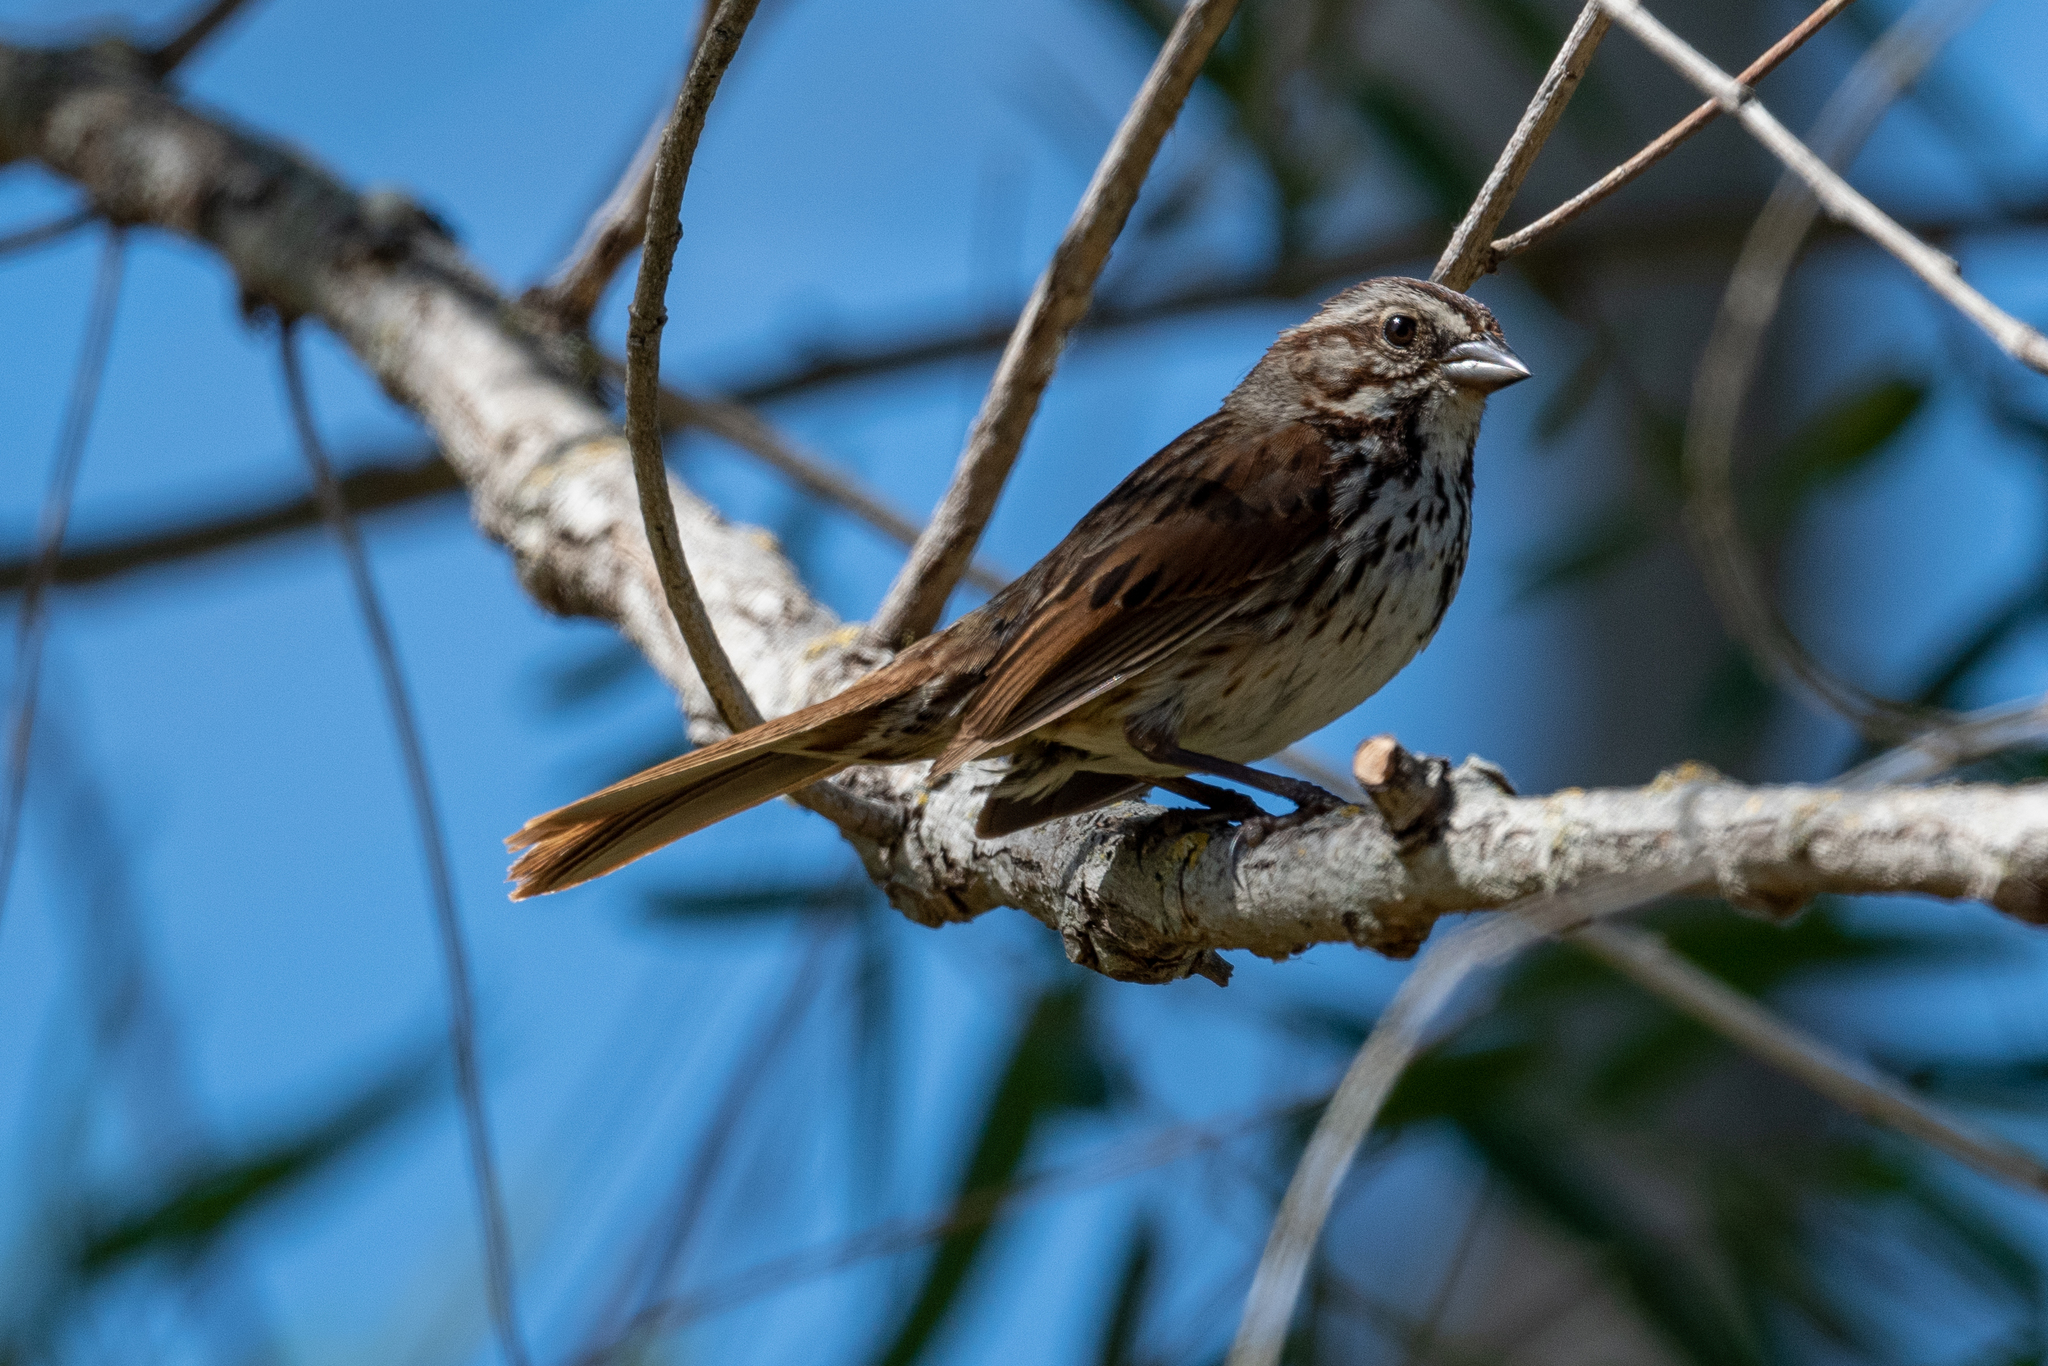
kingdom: Animalia
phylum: Chordata
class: Aves
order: Passeriformes
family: Passerellidae
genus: Melospiza
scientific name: Melospiza melodia
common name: Song sparrow
